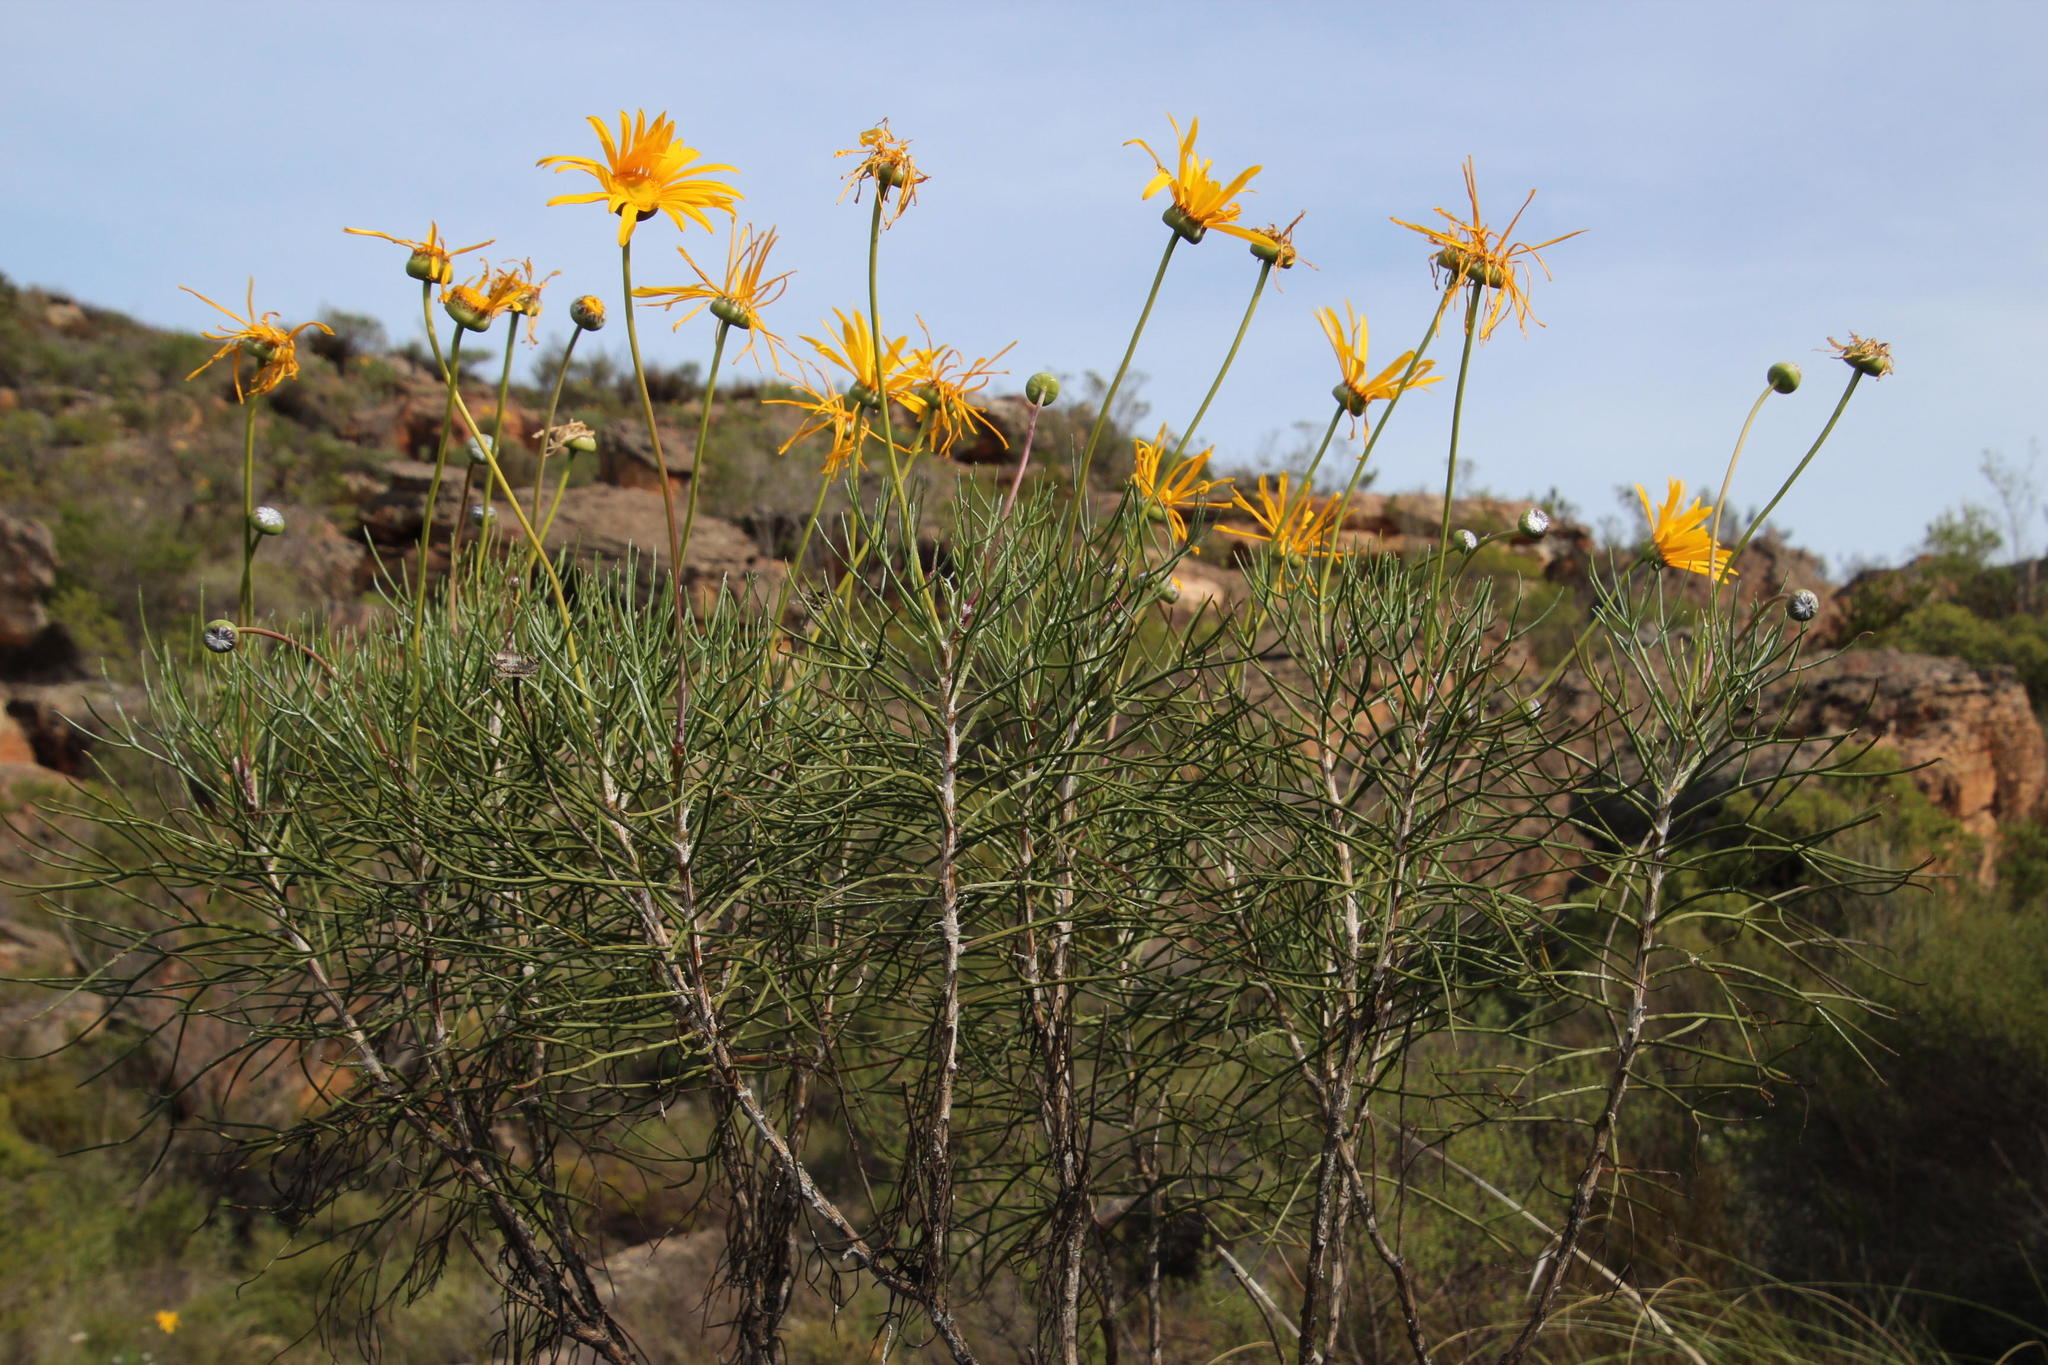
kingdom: Plantae
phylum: Tracheophyta
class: Magnoliopsida
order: Asterales
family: Asteraceae
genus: Euryops
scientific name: Euryops speciosissimus
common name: Clanwilliam daisy
